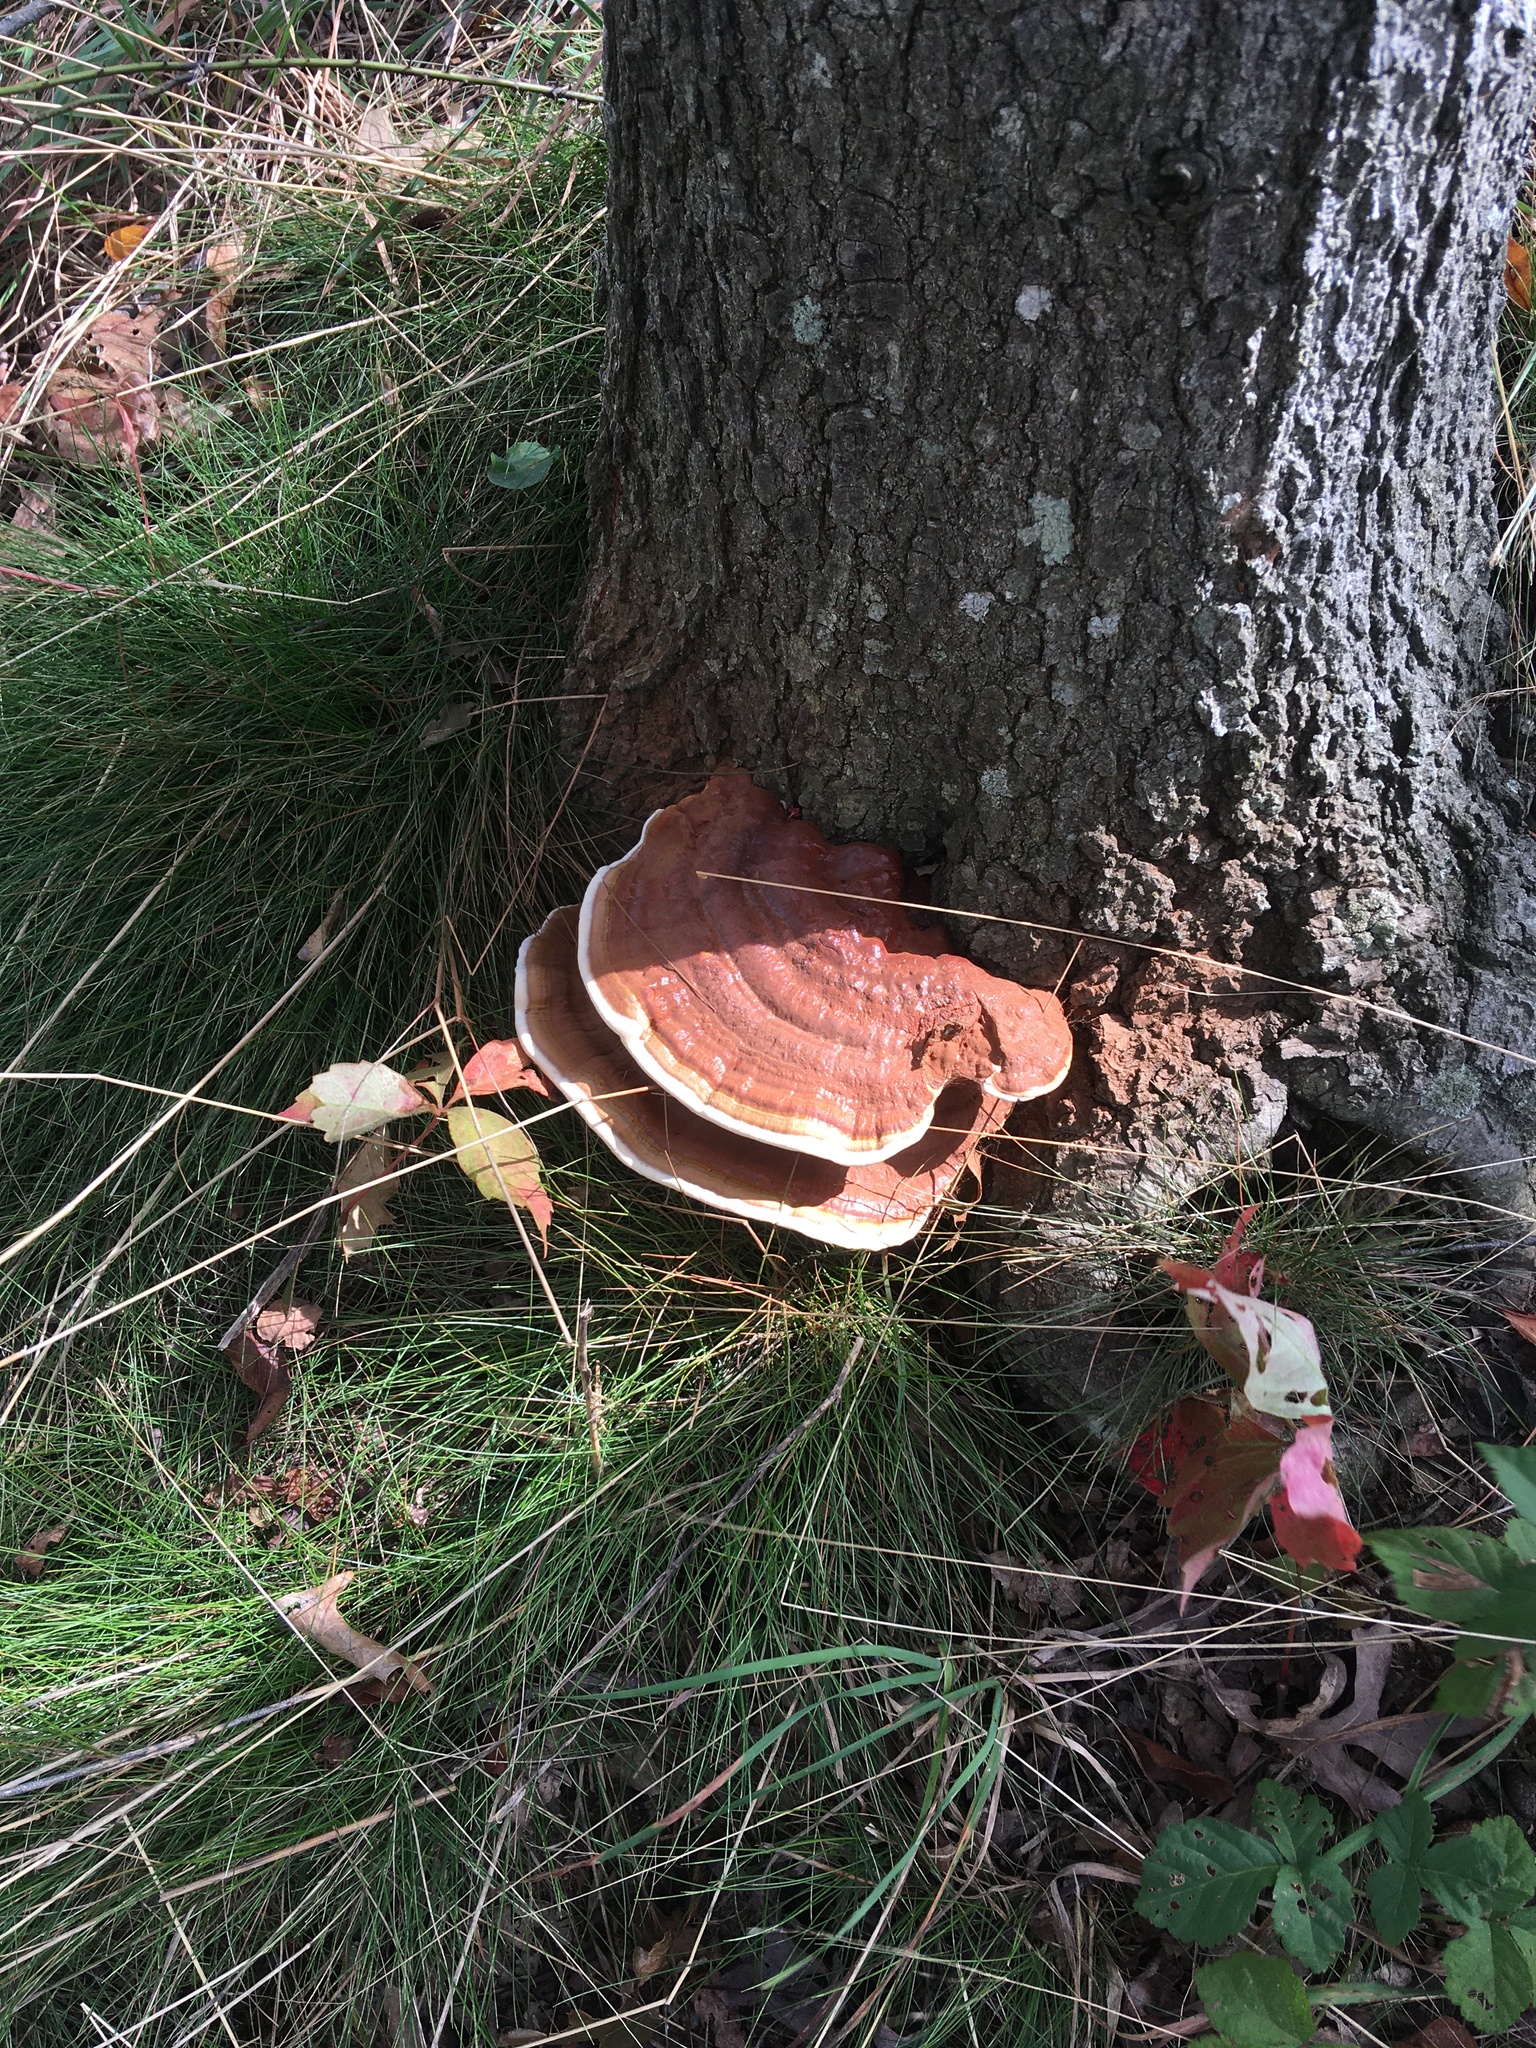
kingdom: Fungi
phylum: Basidiomycota
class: Agaricomycetes
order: Polyporales
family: Polyporaceae
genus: Ganoderma
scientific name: Ganoderma resinaceum
